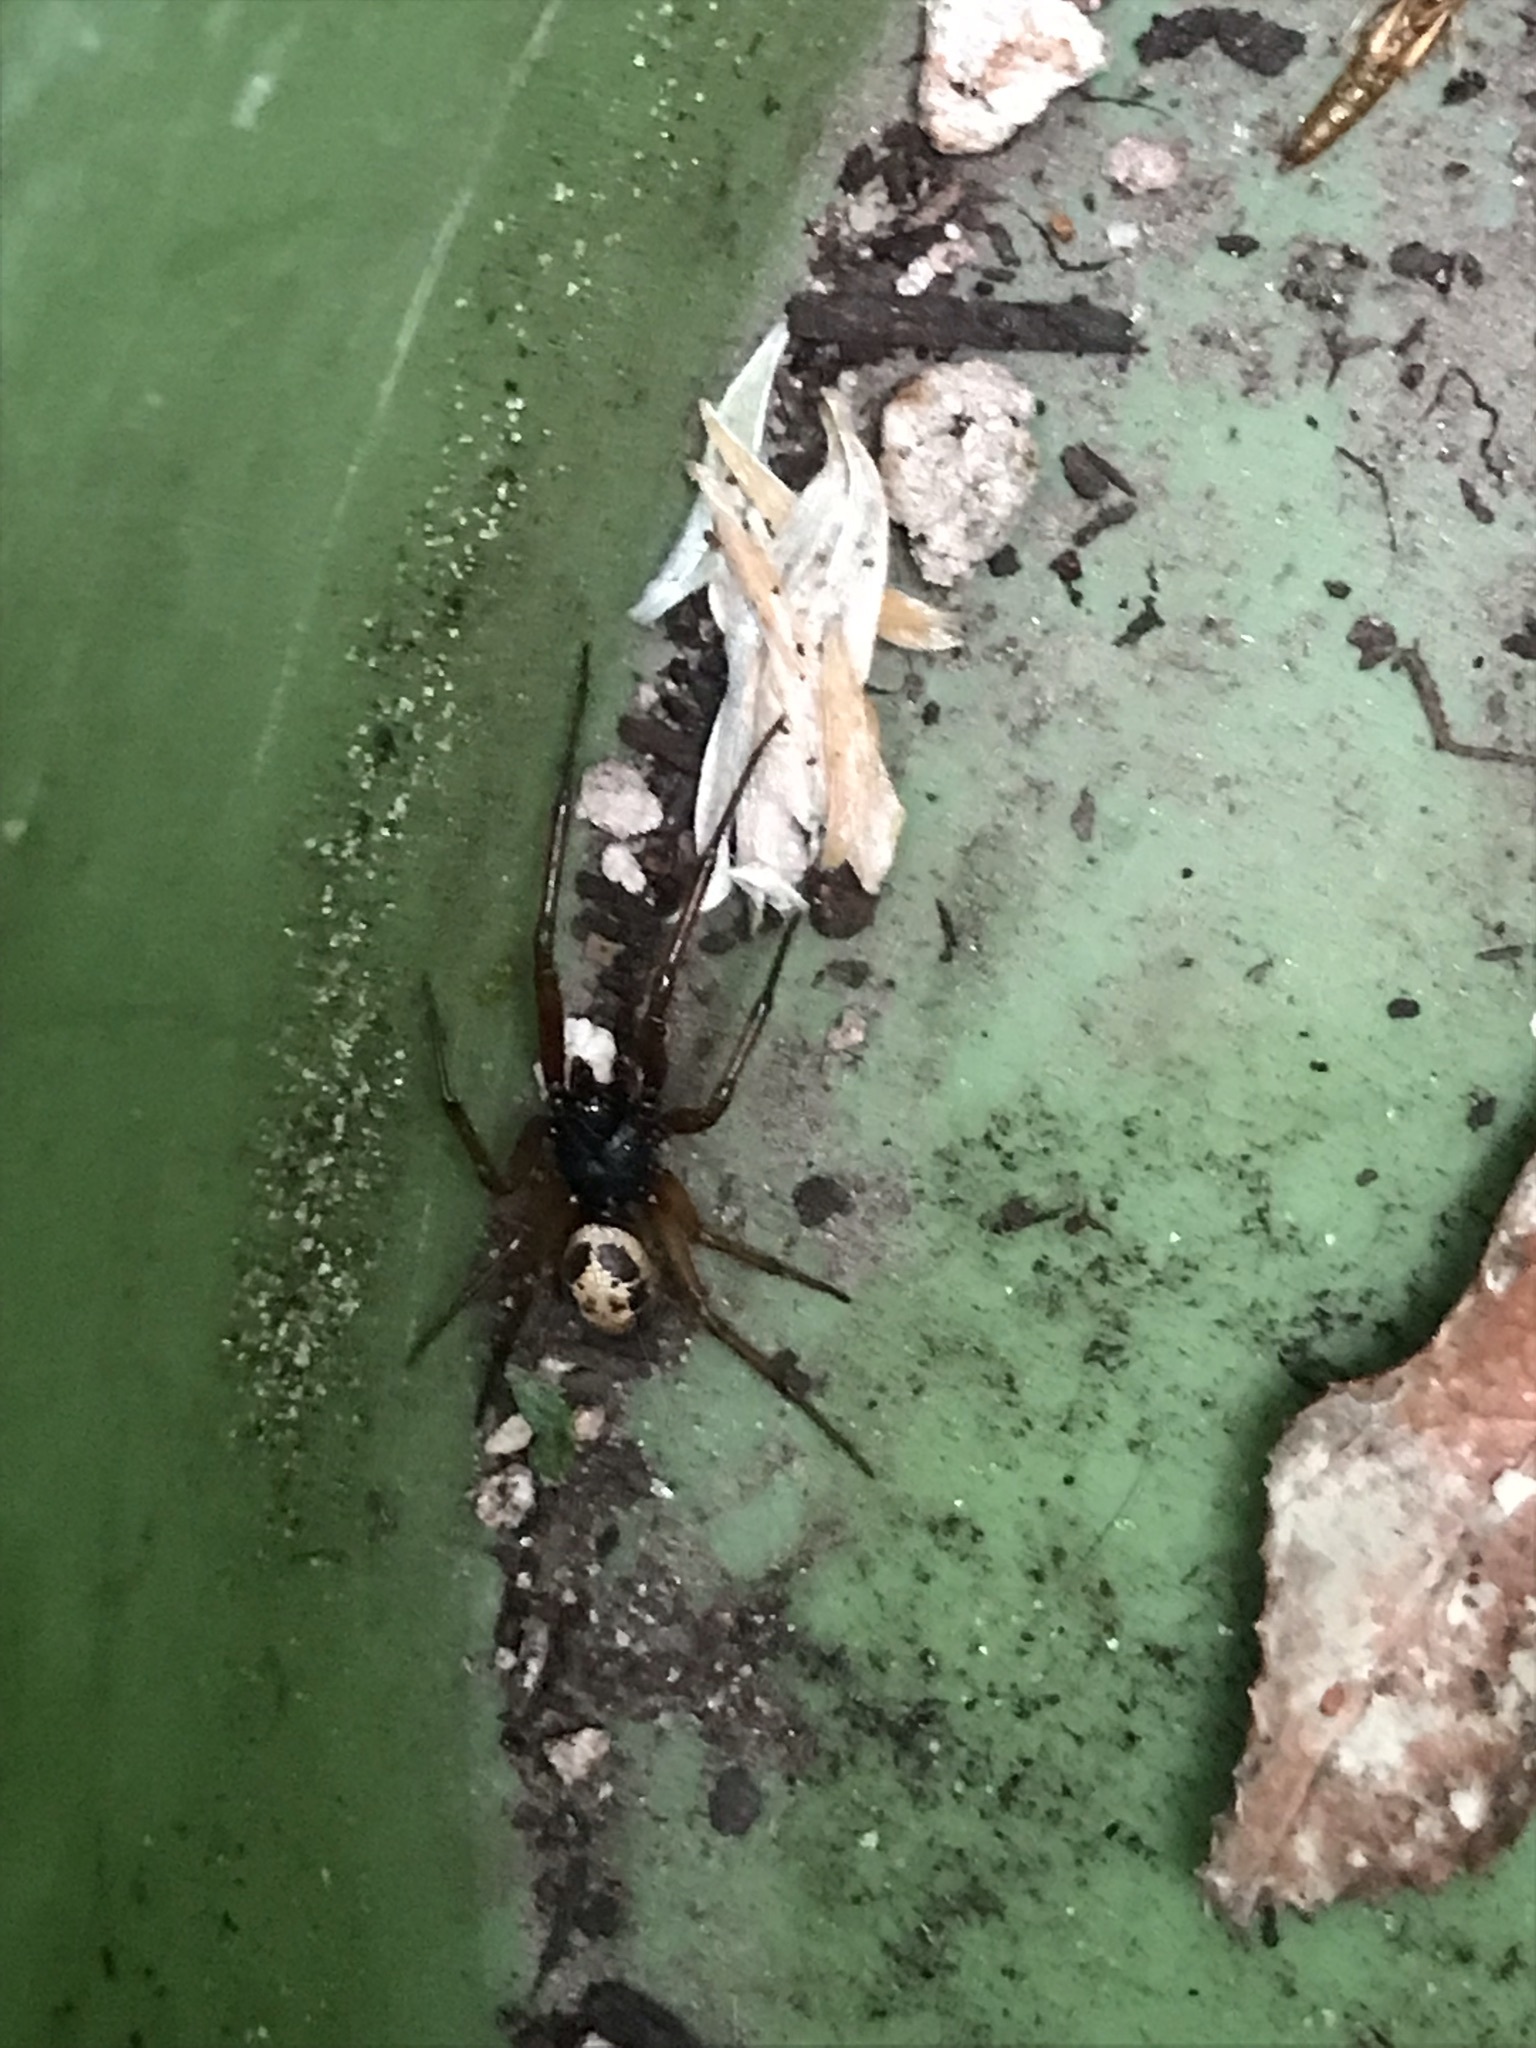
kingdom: Animalia
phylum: Arthropoda
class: Arachnida
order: Araneae
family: Theridiidae
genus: Steatoda
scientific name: Steatoda nobilis
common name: Cobweb weaver
